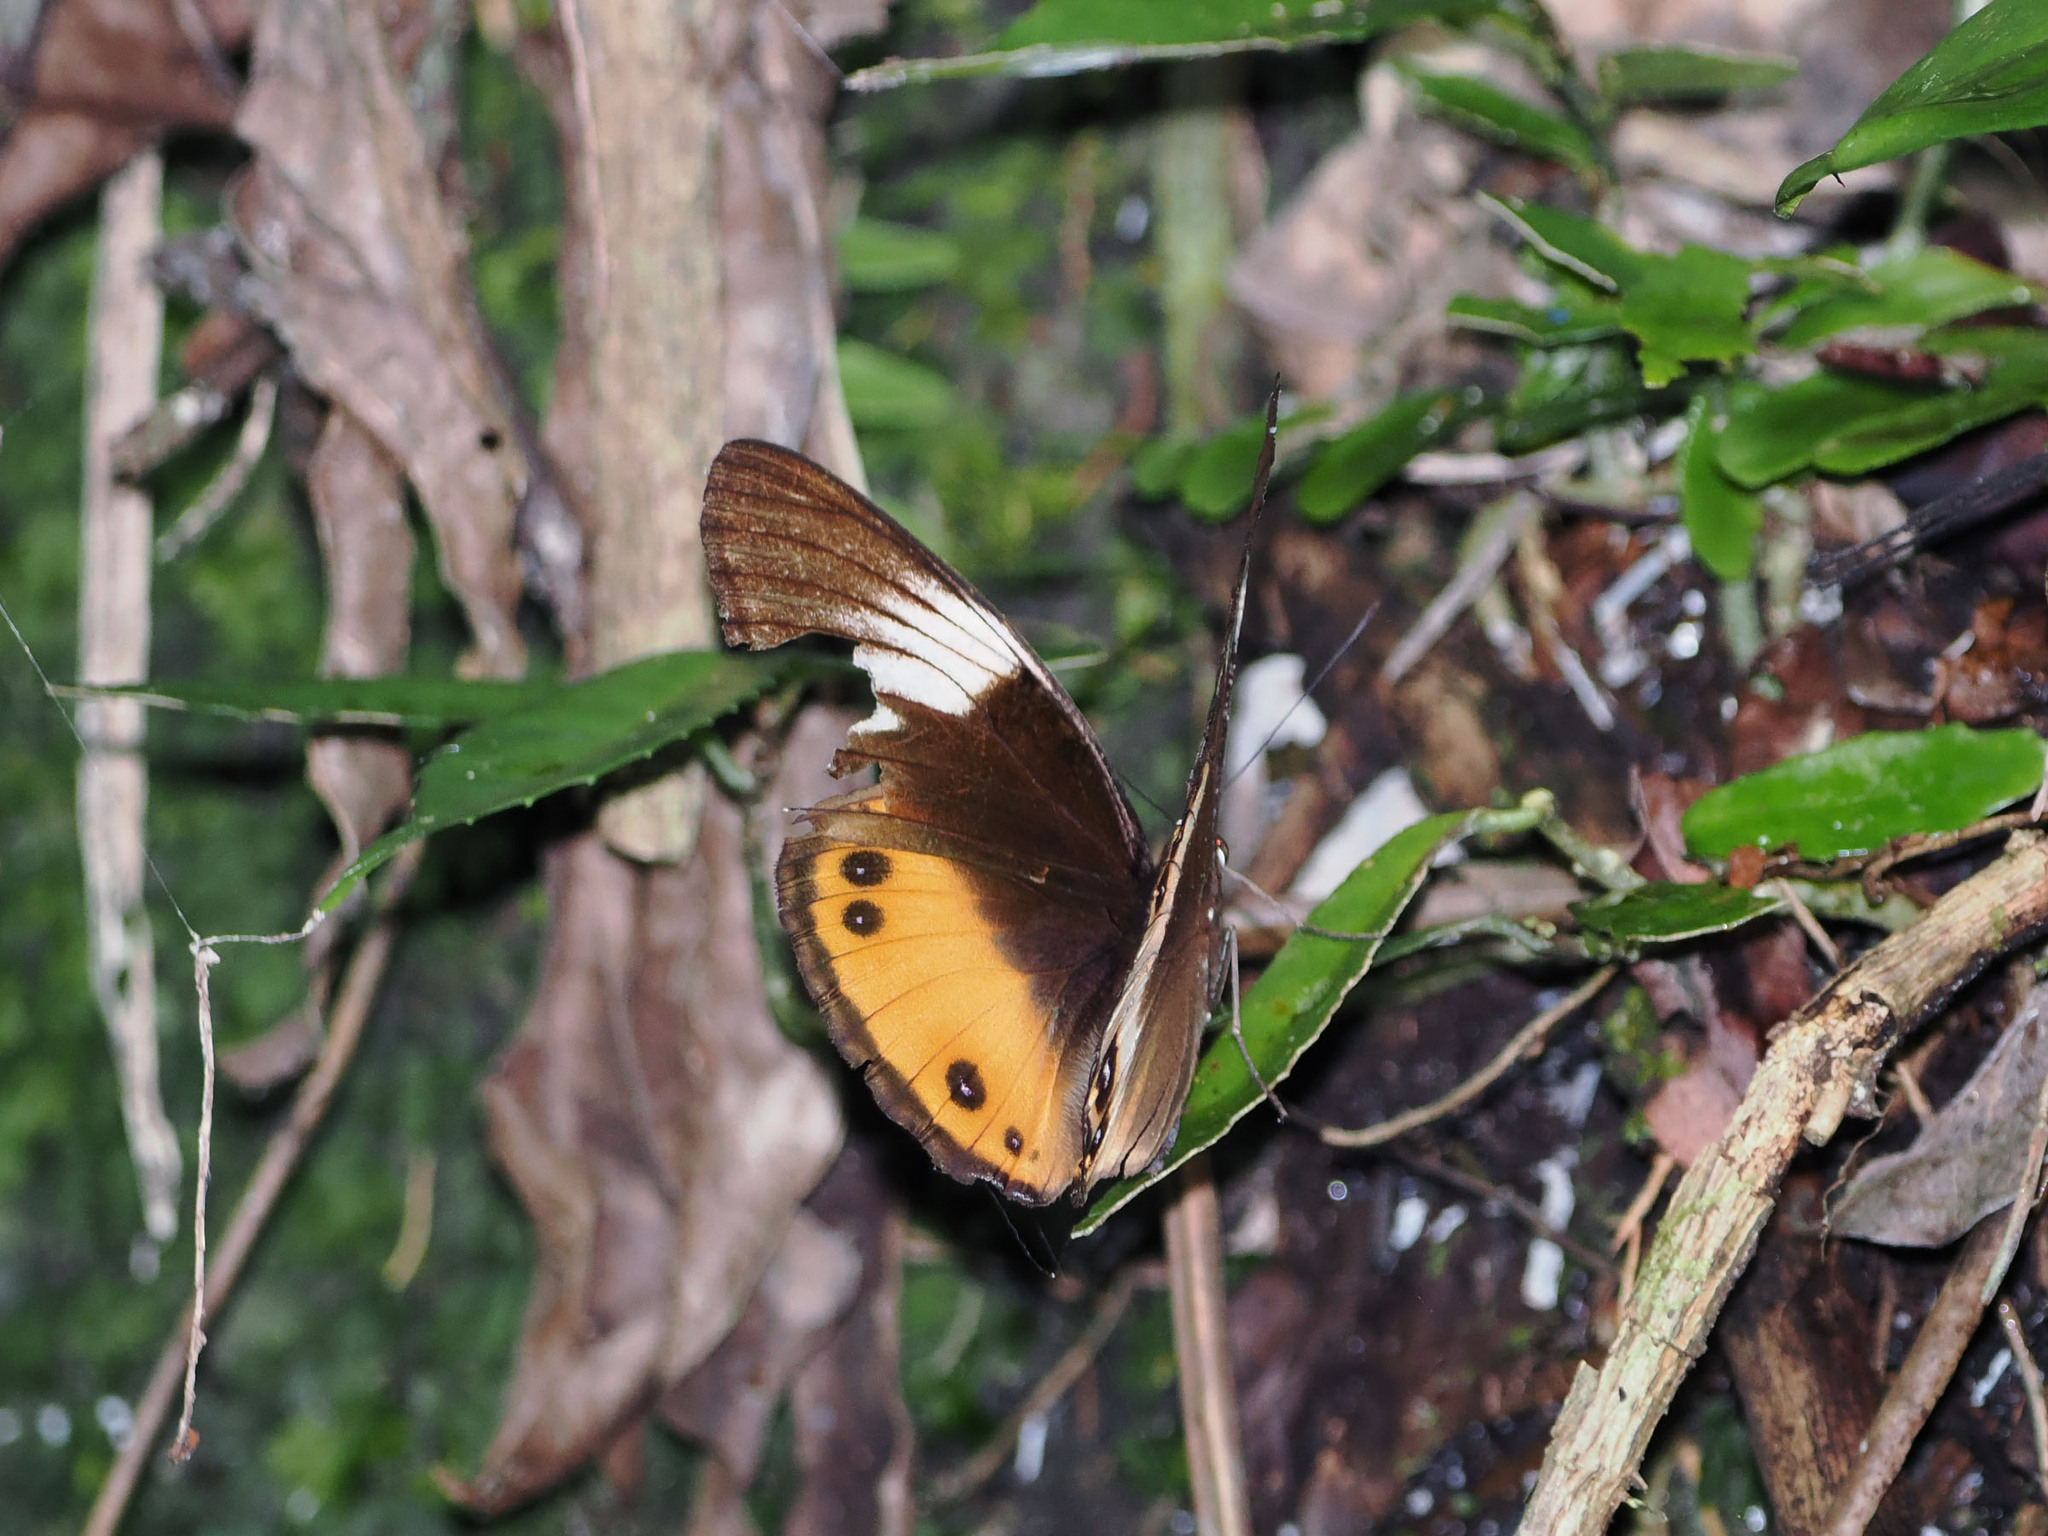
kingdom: Animalia
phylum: Arthropoda
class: Insecta
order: Lepidoptera
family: Nymphalidae
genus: Hypolimnas
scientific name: Hypolimnas deois
